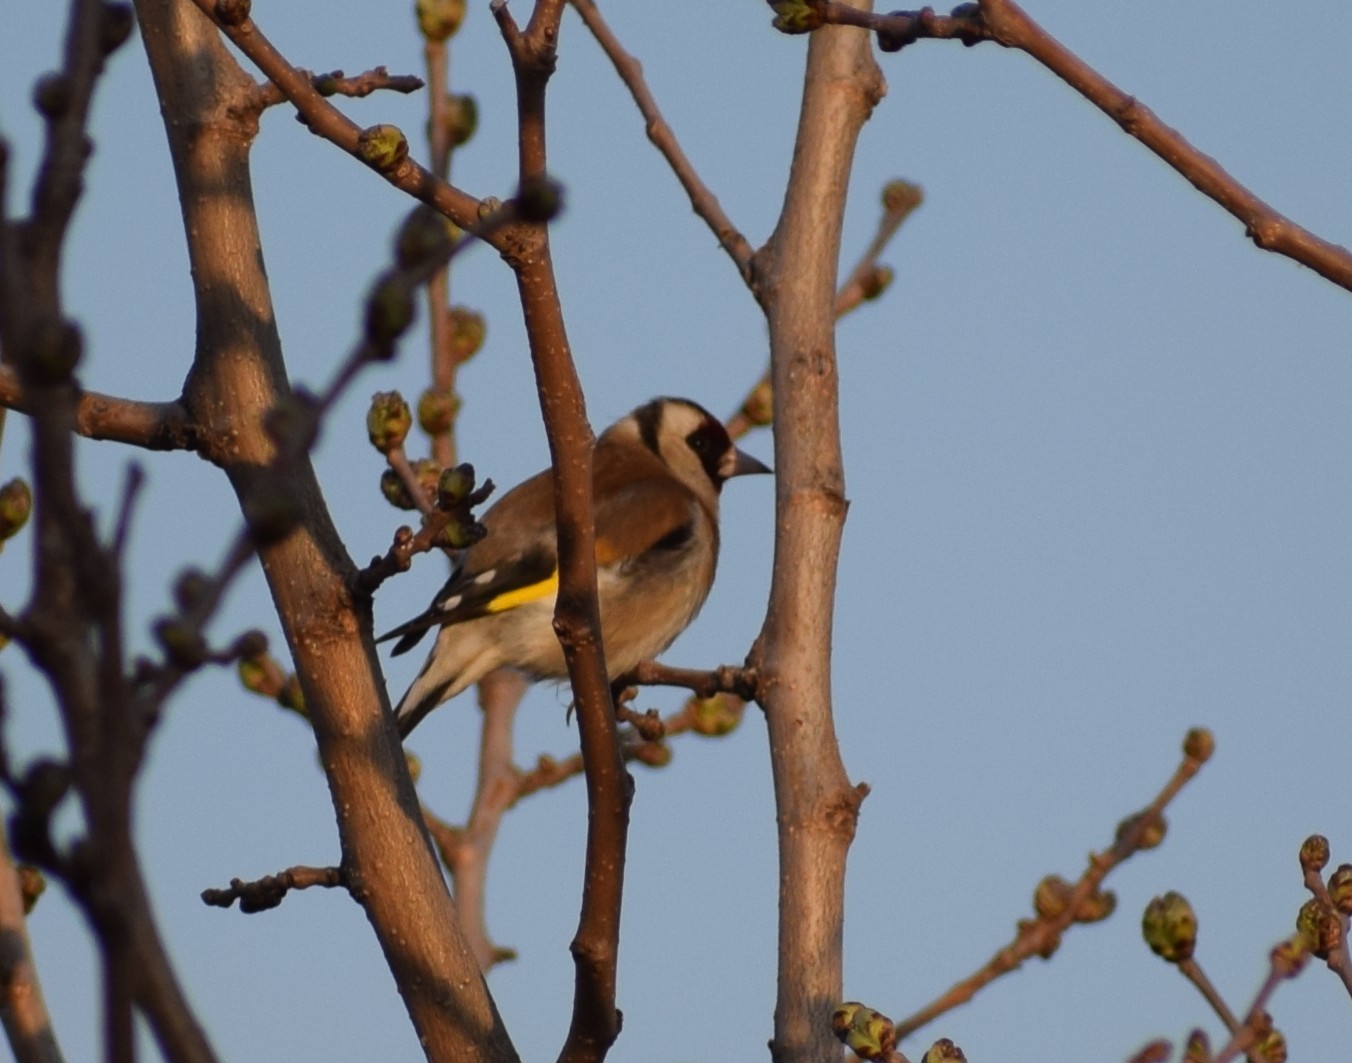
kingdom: Animalia
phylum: Chordata
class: Aves
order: Passeriformes
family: Fringillidae
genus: Carduelis
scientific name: Carduelis carduelis
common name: European goldfinch
